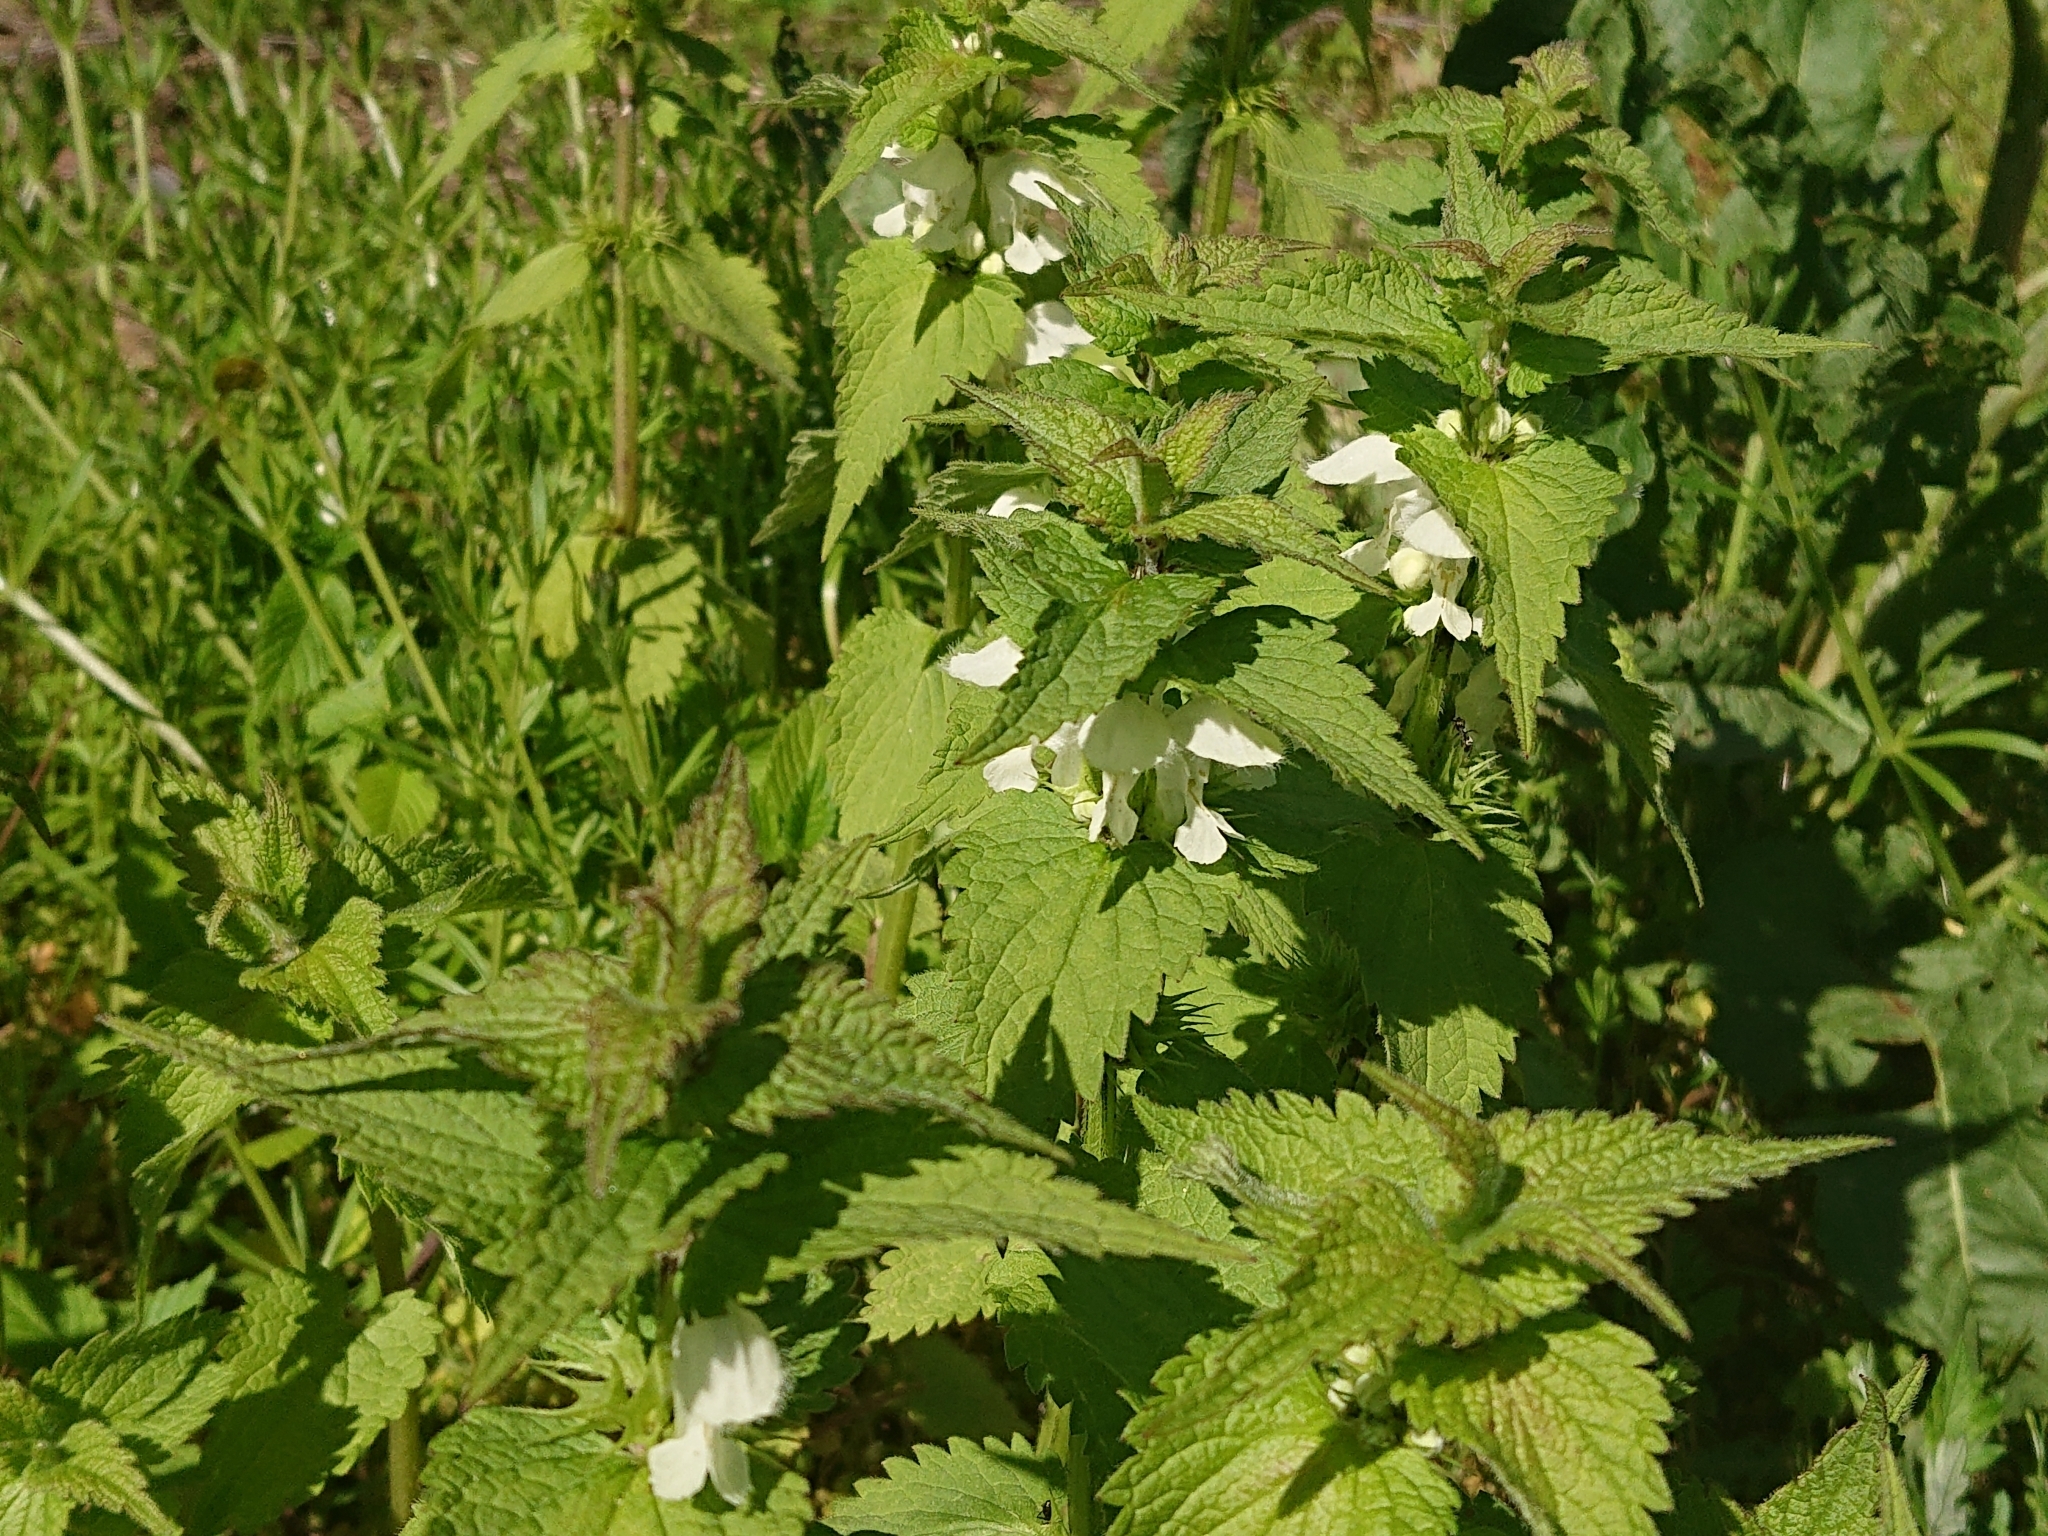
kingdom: Plantae
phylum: Tracheophyta
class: Magnoliopsida
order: Lamiales
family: Lamiaceae
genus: Lamium
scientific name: Lamium album
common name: White dead-nettle
